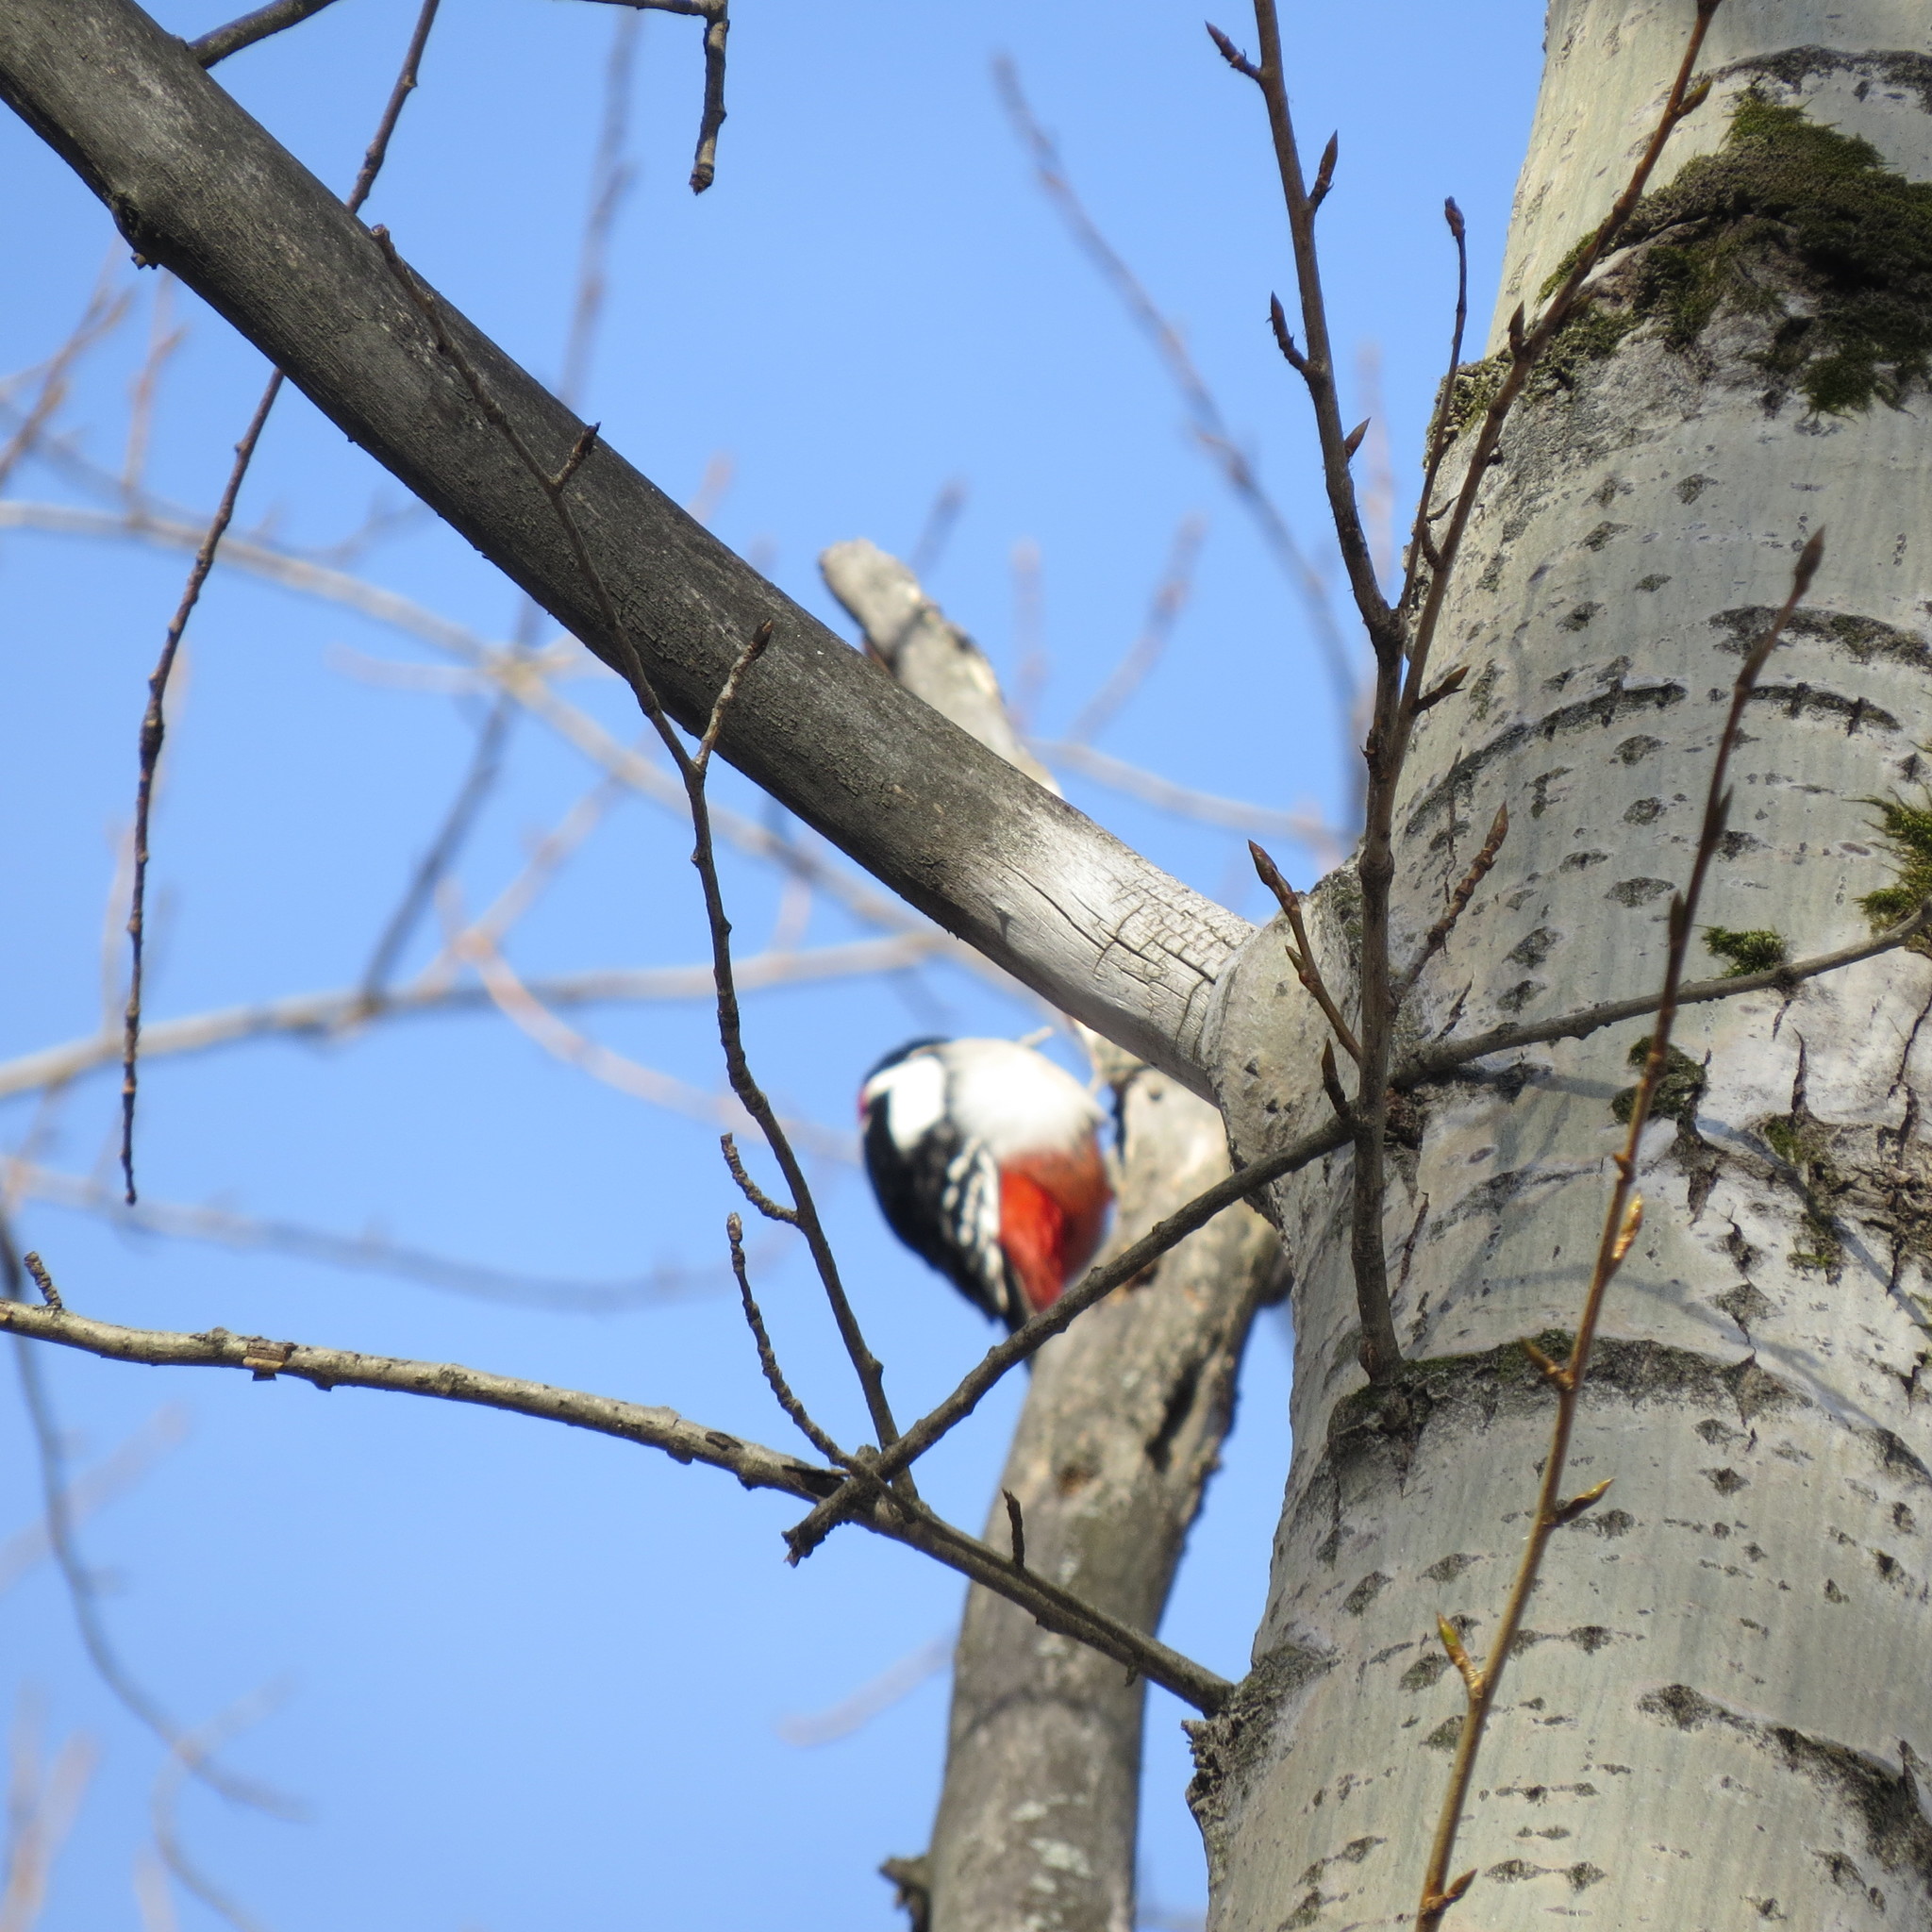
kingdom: Animalia
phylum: Chordata
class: Aves
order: Piciformes
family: Picidae
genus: Dendrocopos
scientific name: Dendrocopos major
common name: Great spotted woodpecker
